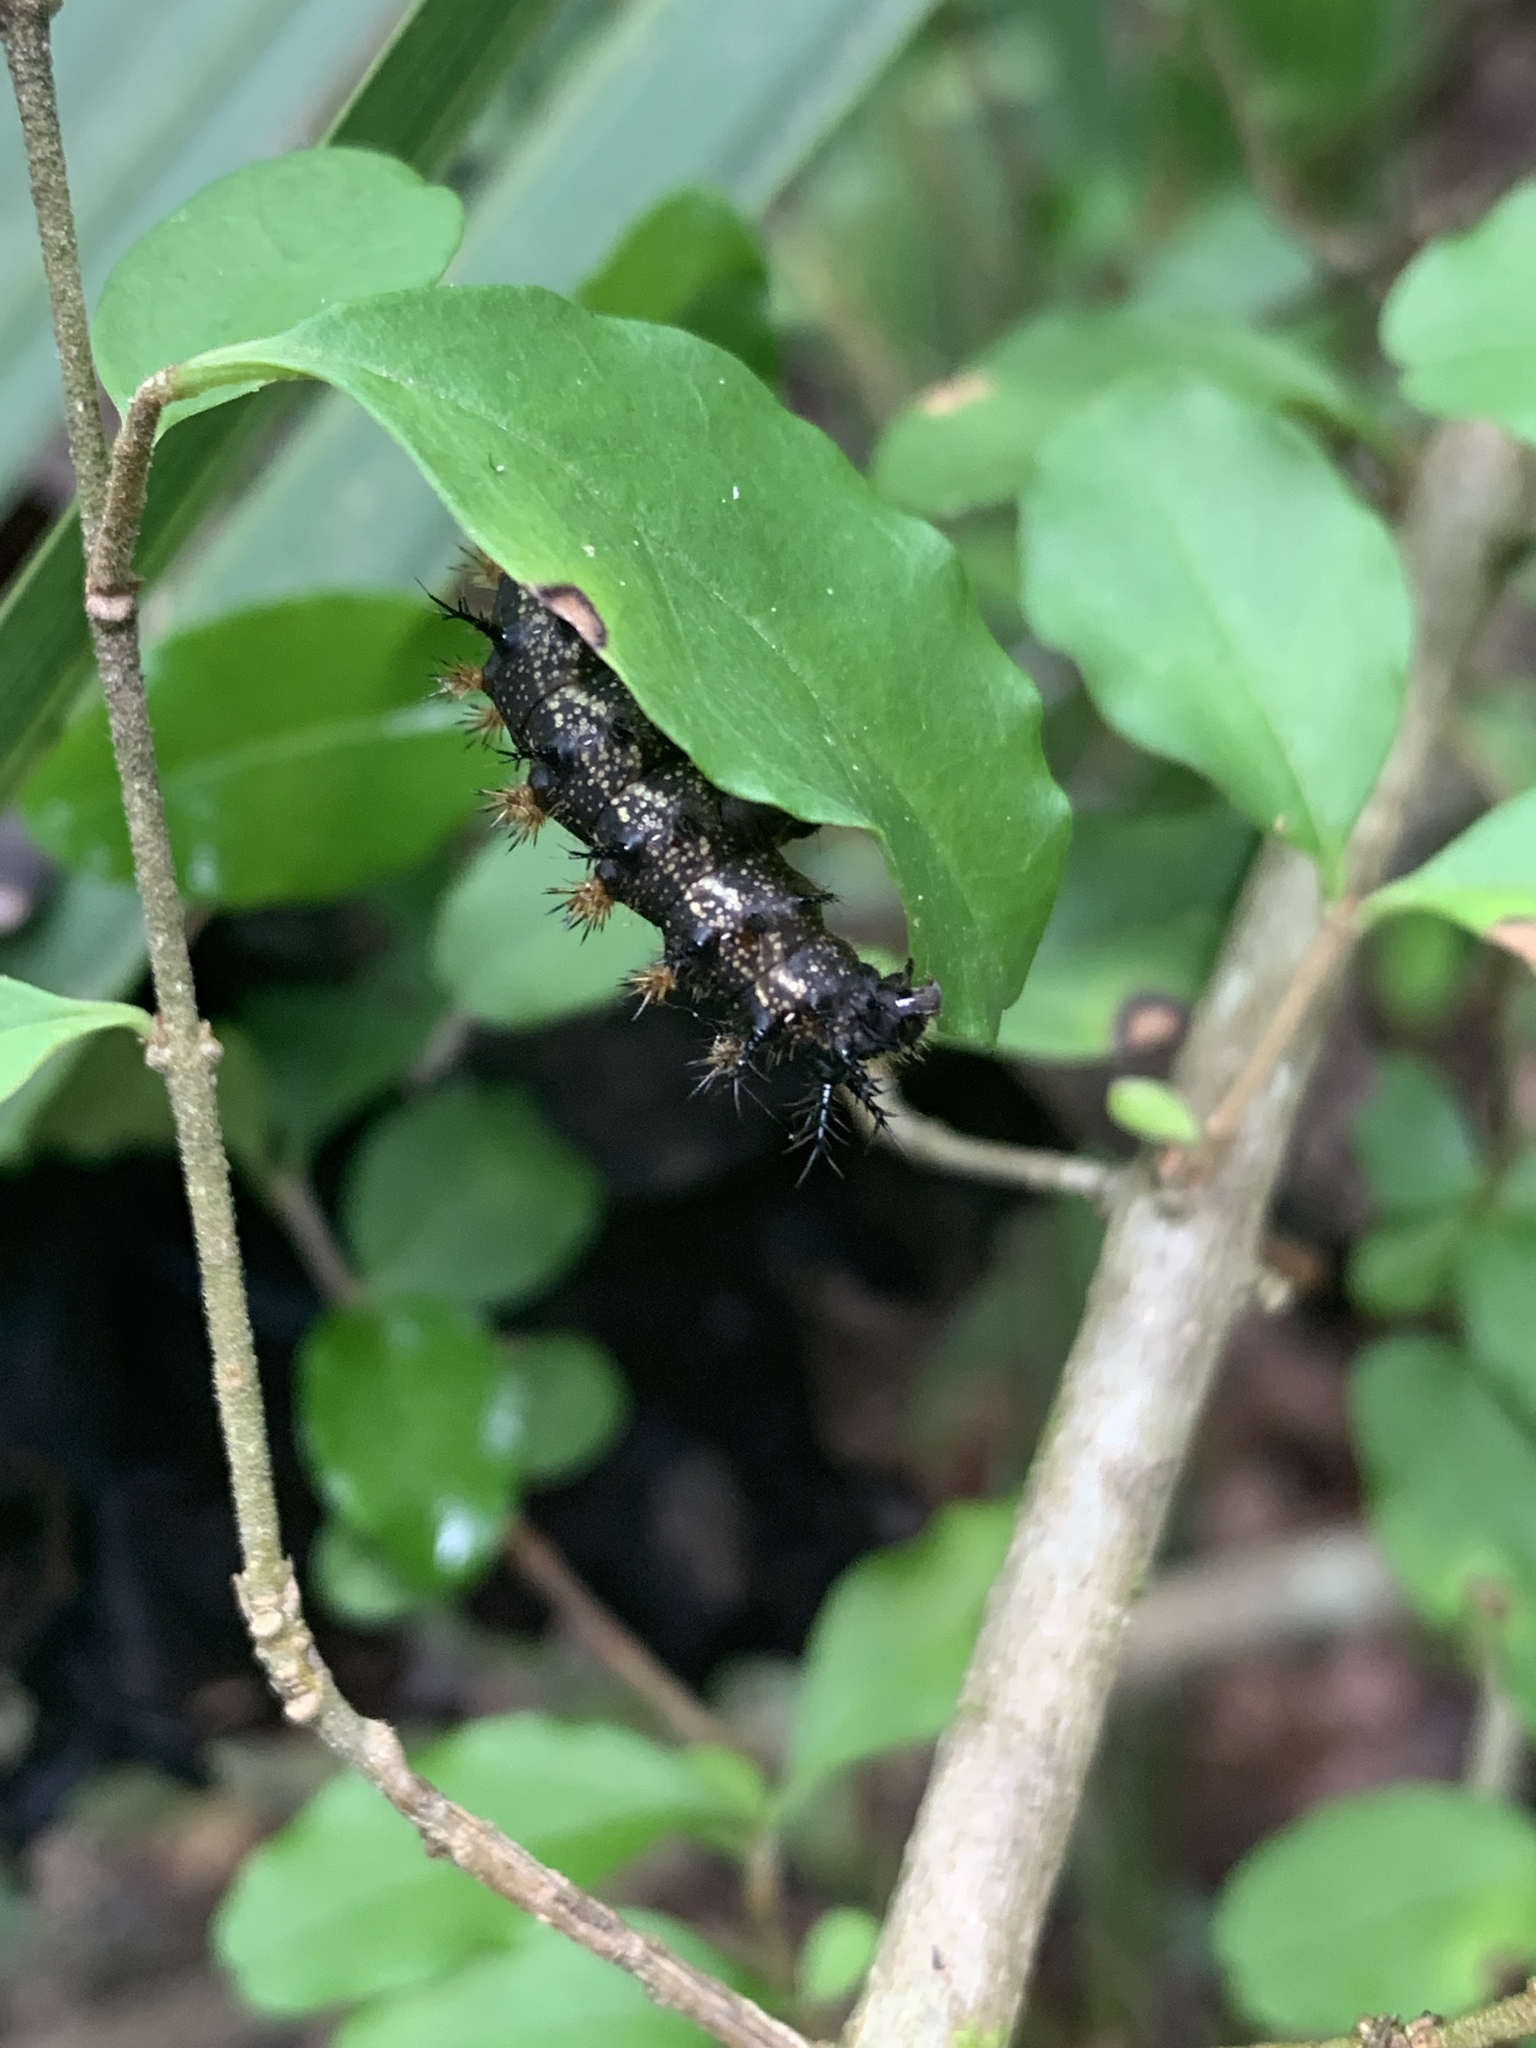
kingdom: Animalia
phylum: Arthropoda
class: Insecta
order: Lepidoptera
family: Saturniidae
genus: Hemileuca
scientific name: Hemileuca maia
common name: Eastern buckmoth
